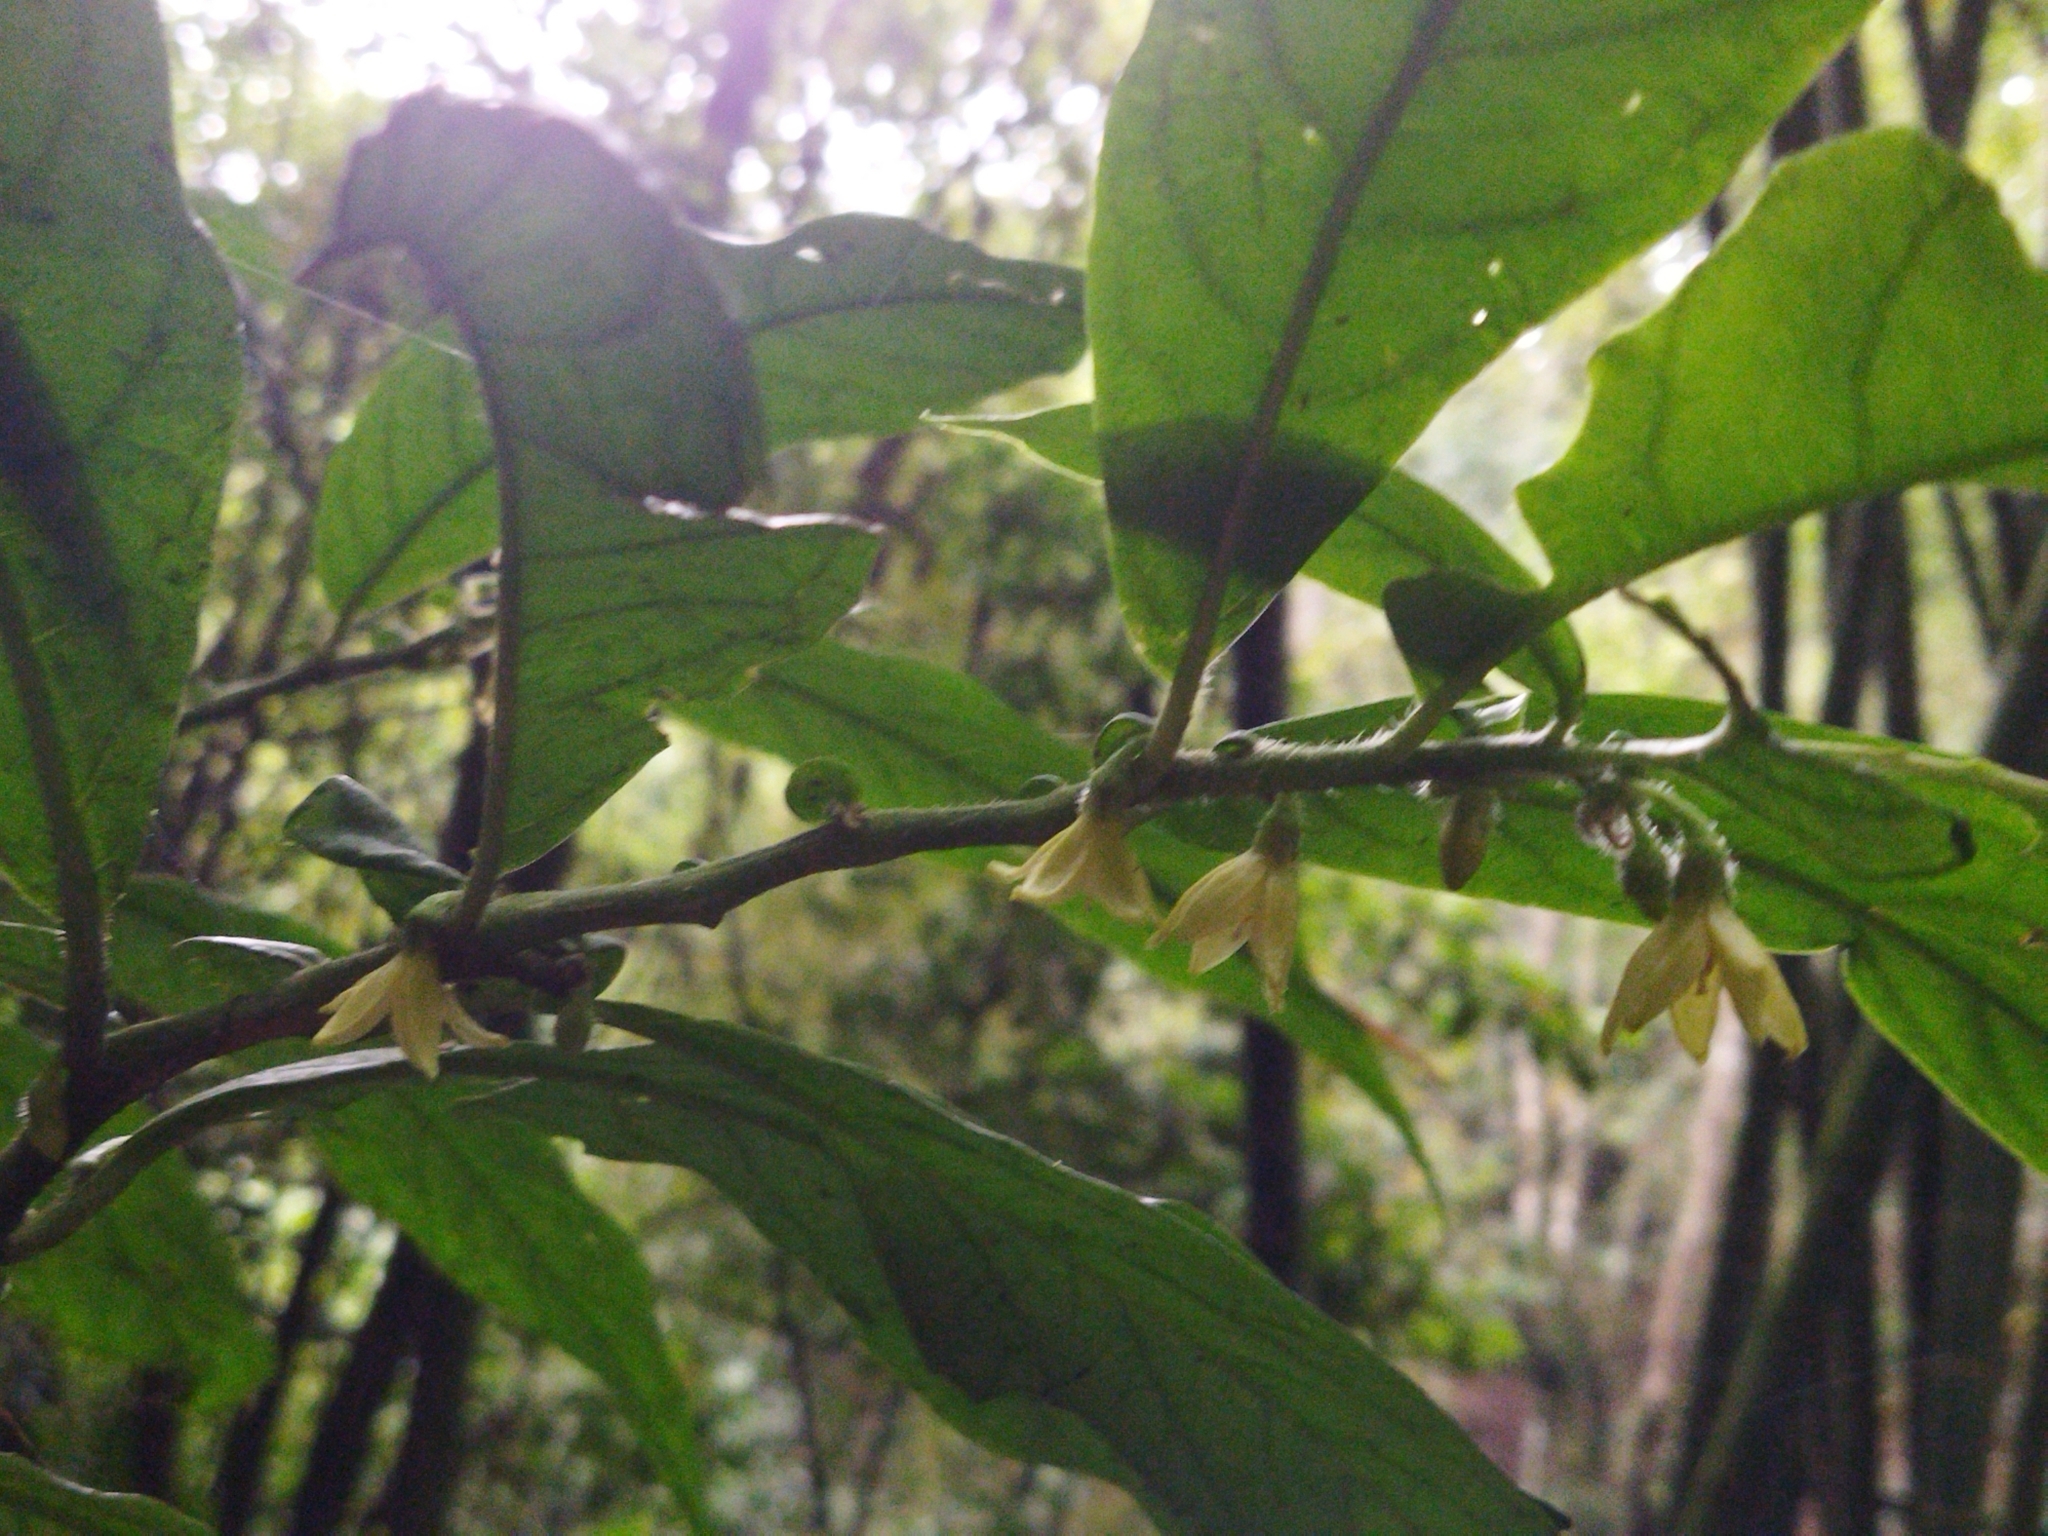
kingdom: Plantae
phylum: Tracheophyta
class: Magnoliopsida
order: Solanales
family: Solanaceae
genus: Cuatresia
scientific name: Cuatresia riparia
